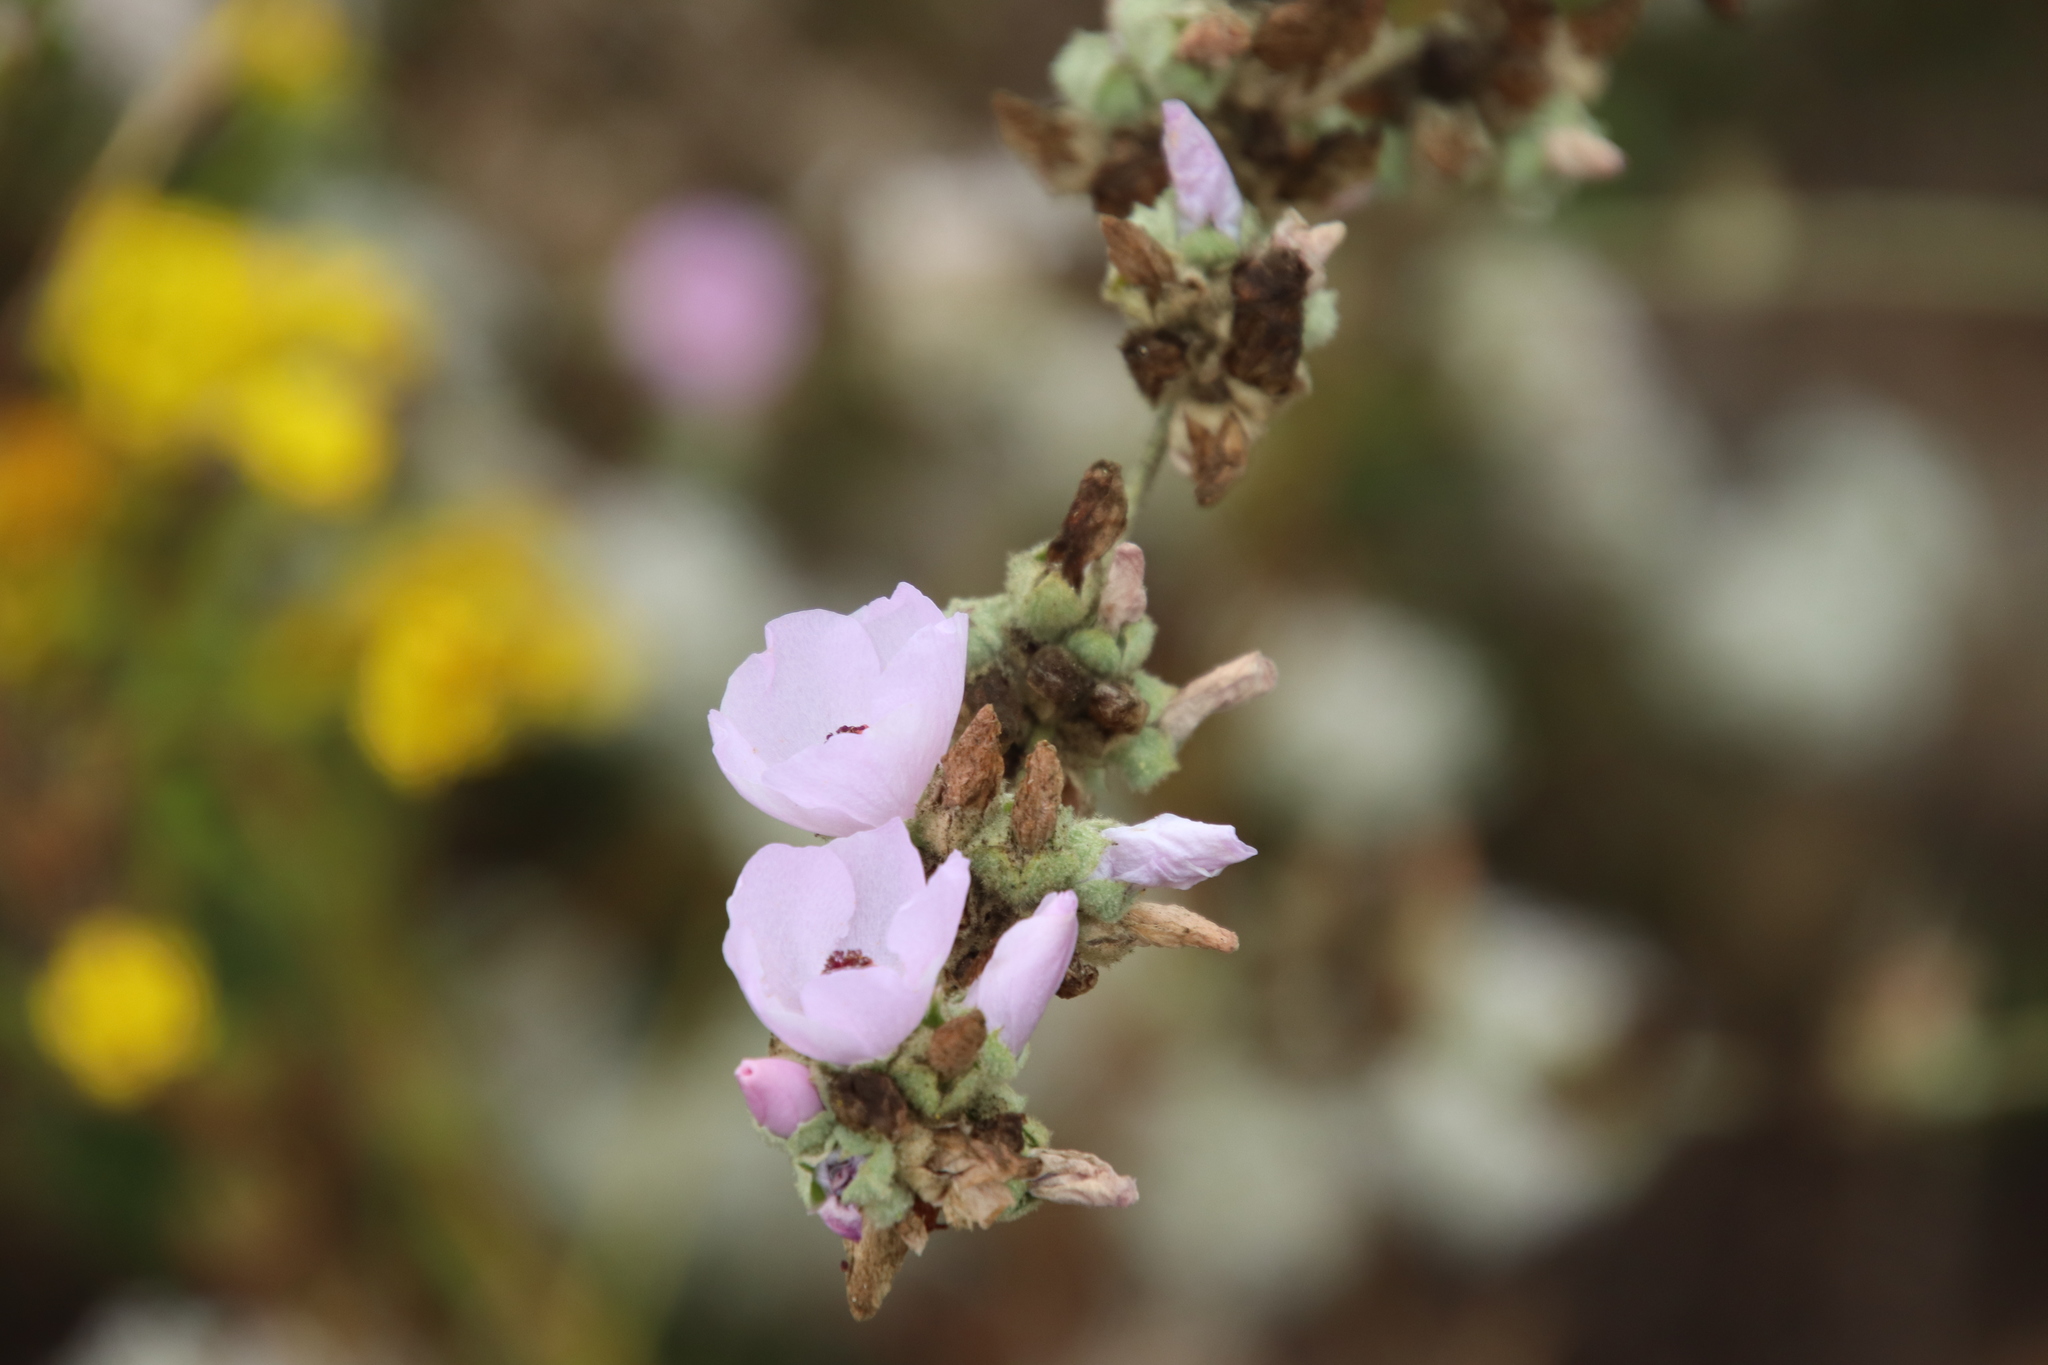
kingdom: Plantae
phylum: Tracheophyta
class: Magnoliopsida
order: Malvales
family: Malvaceae
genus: Malacothamnus
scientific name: Malacothamnus fasciculatus
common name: Sant cruz island bush-mallow
